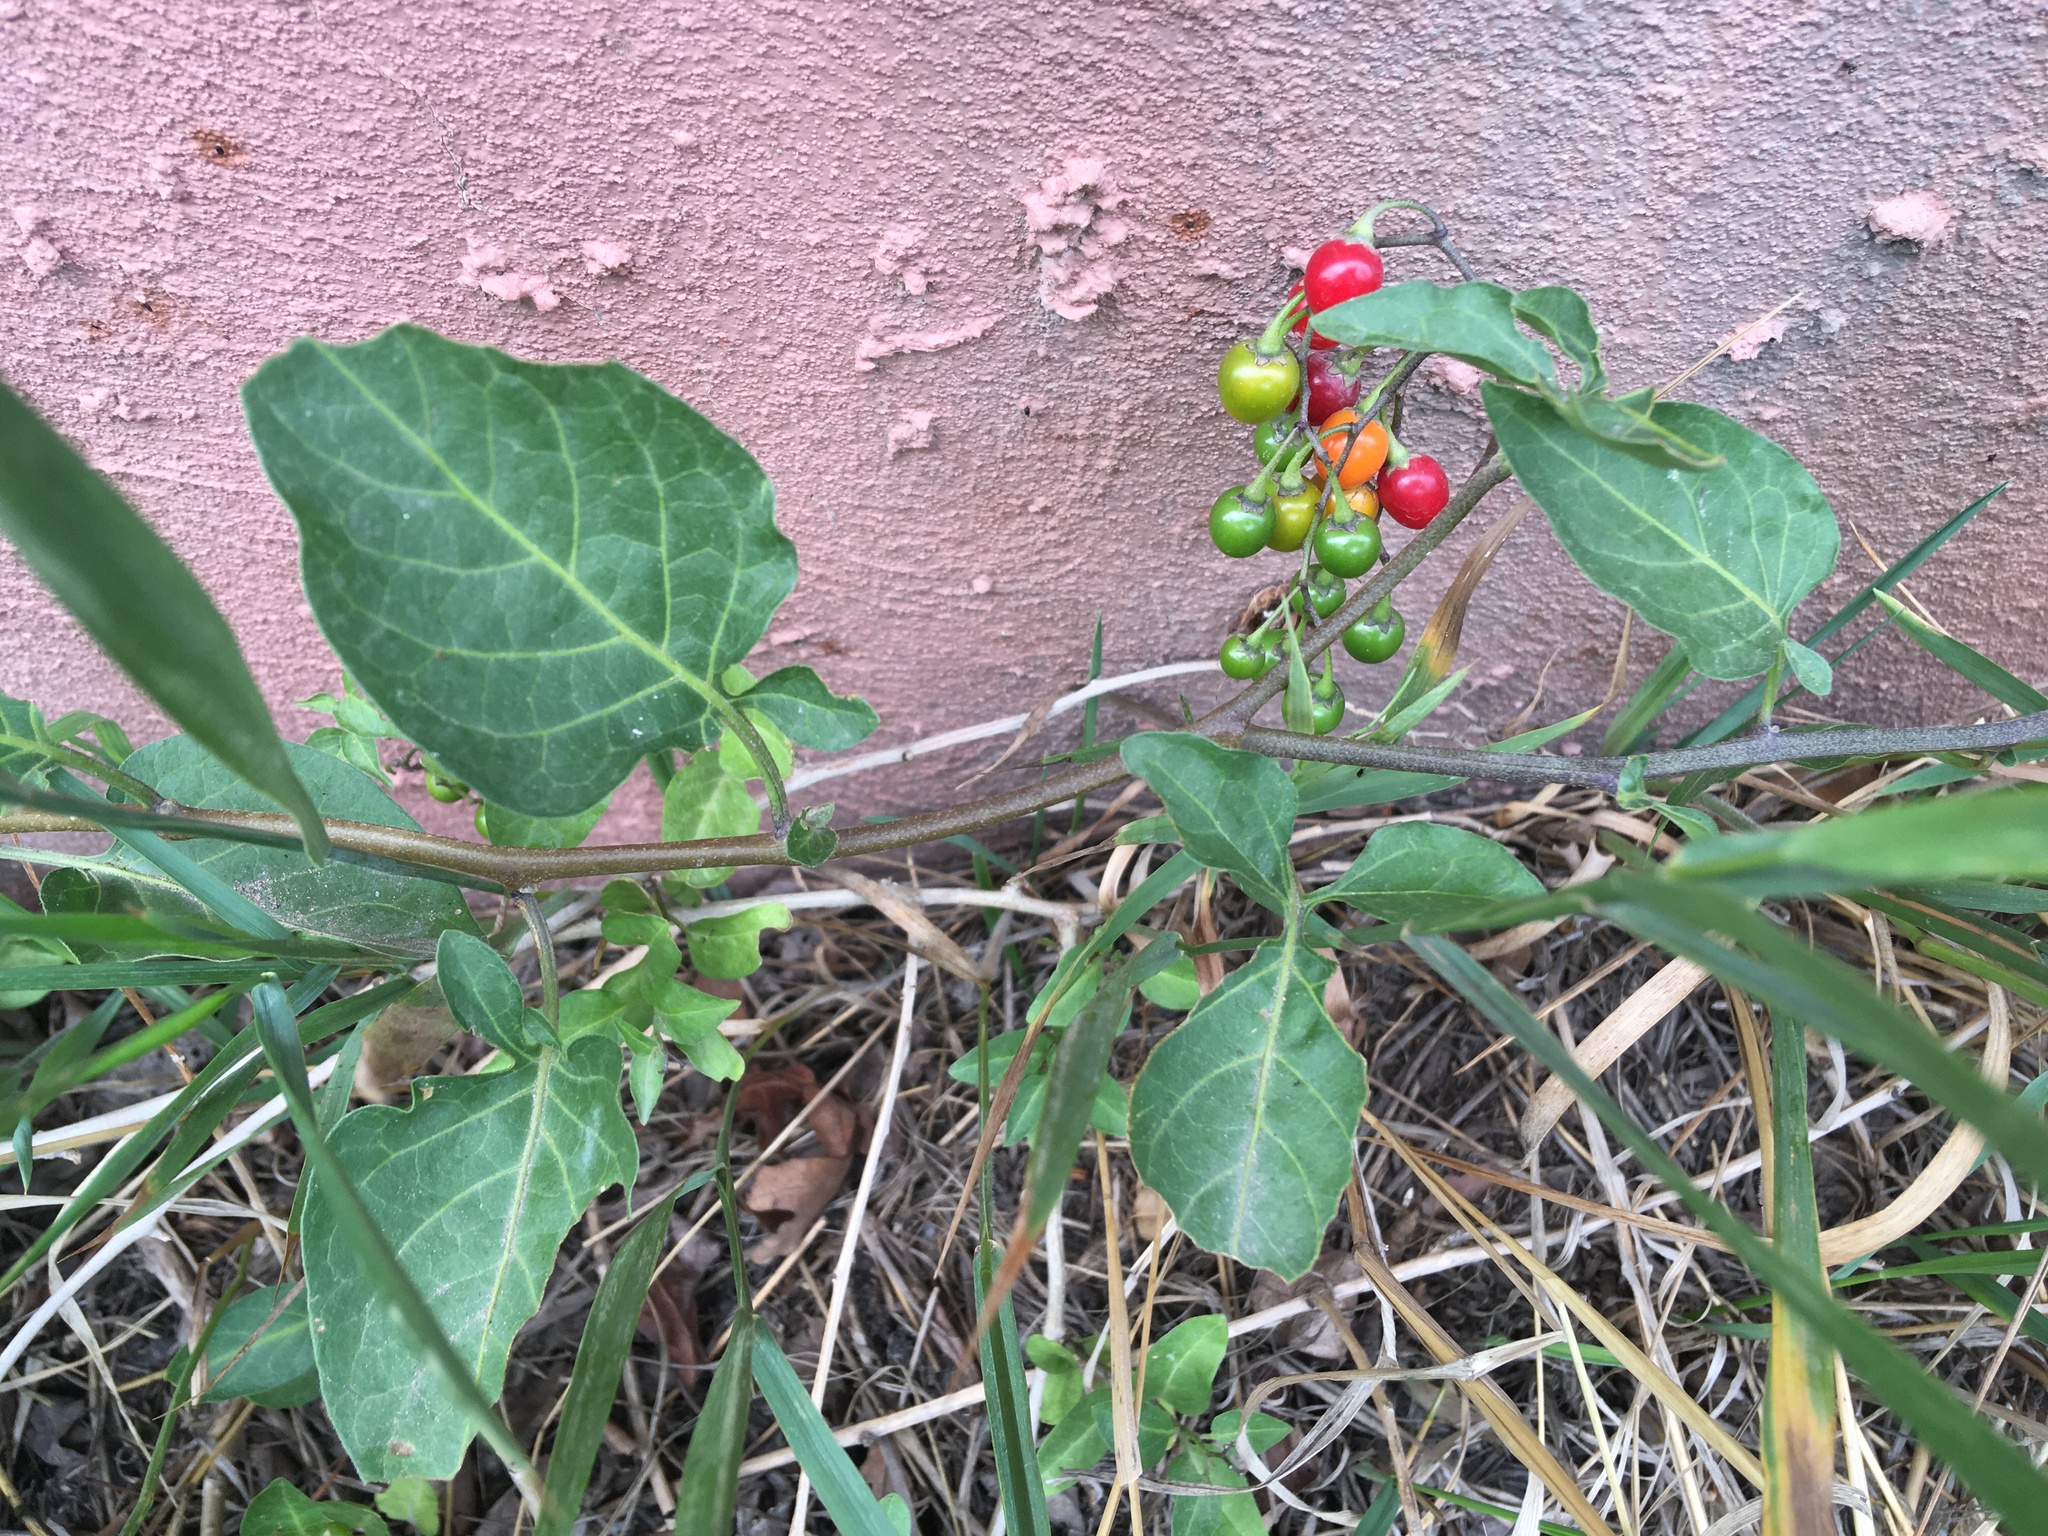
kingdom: Plantae
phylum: Tracheophyta
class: Magnoliopsida
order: Solanales
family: Solanaceae
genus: Solanum
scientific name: Solanum dulcamara
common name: Climbing nightshade
